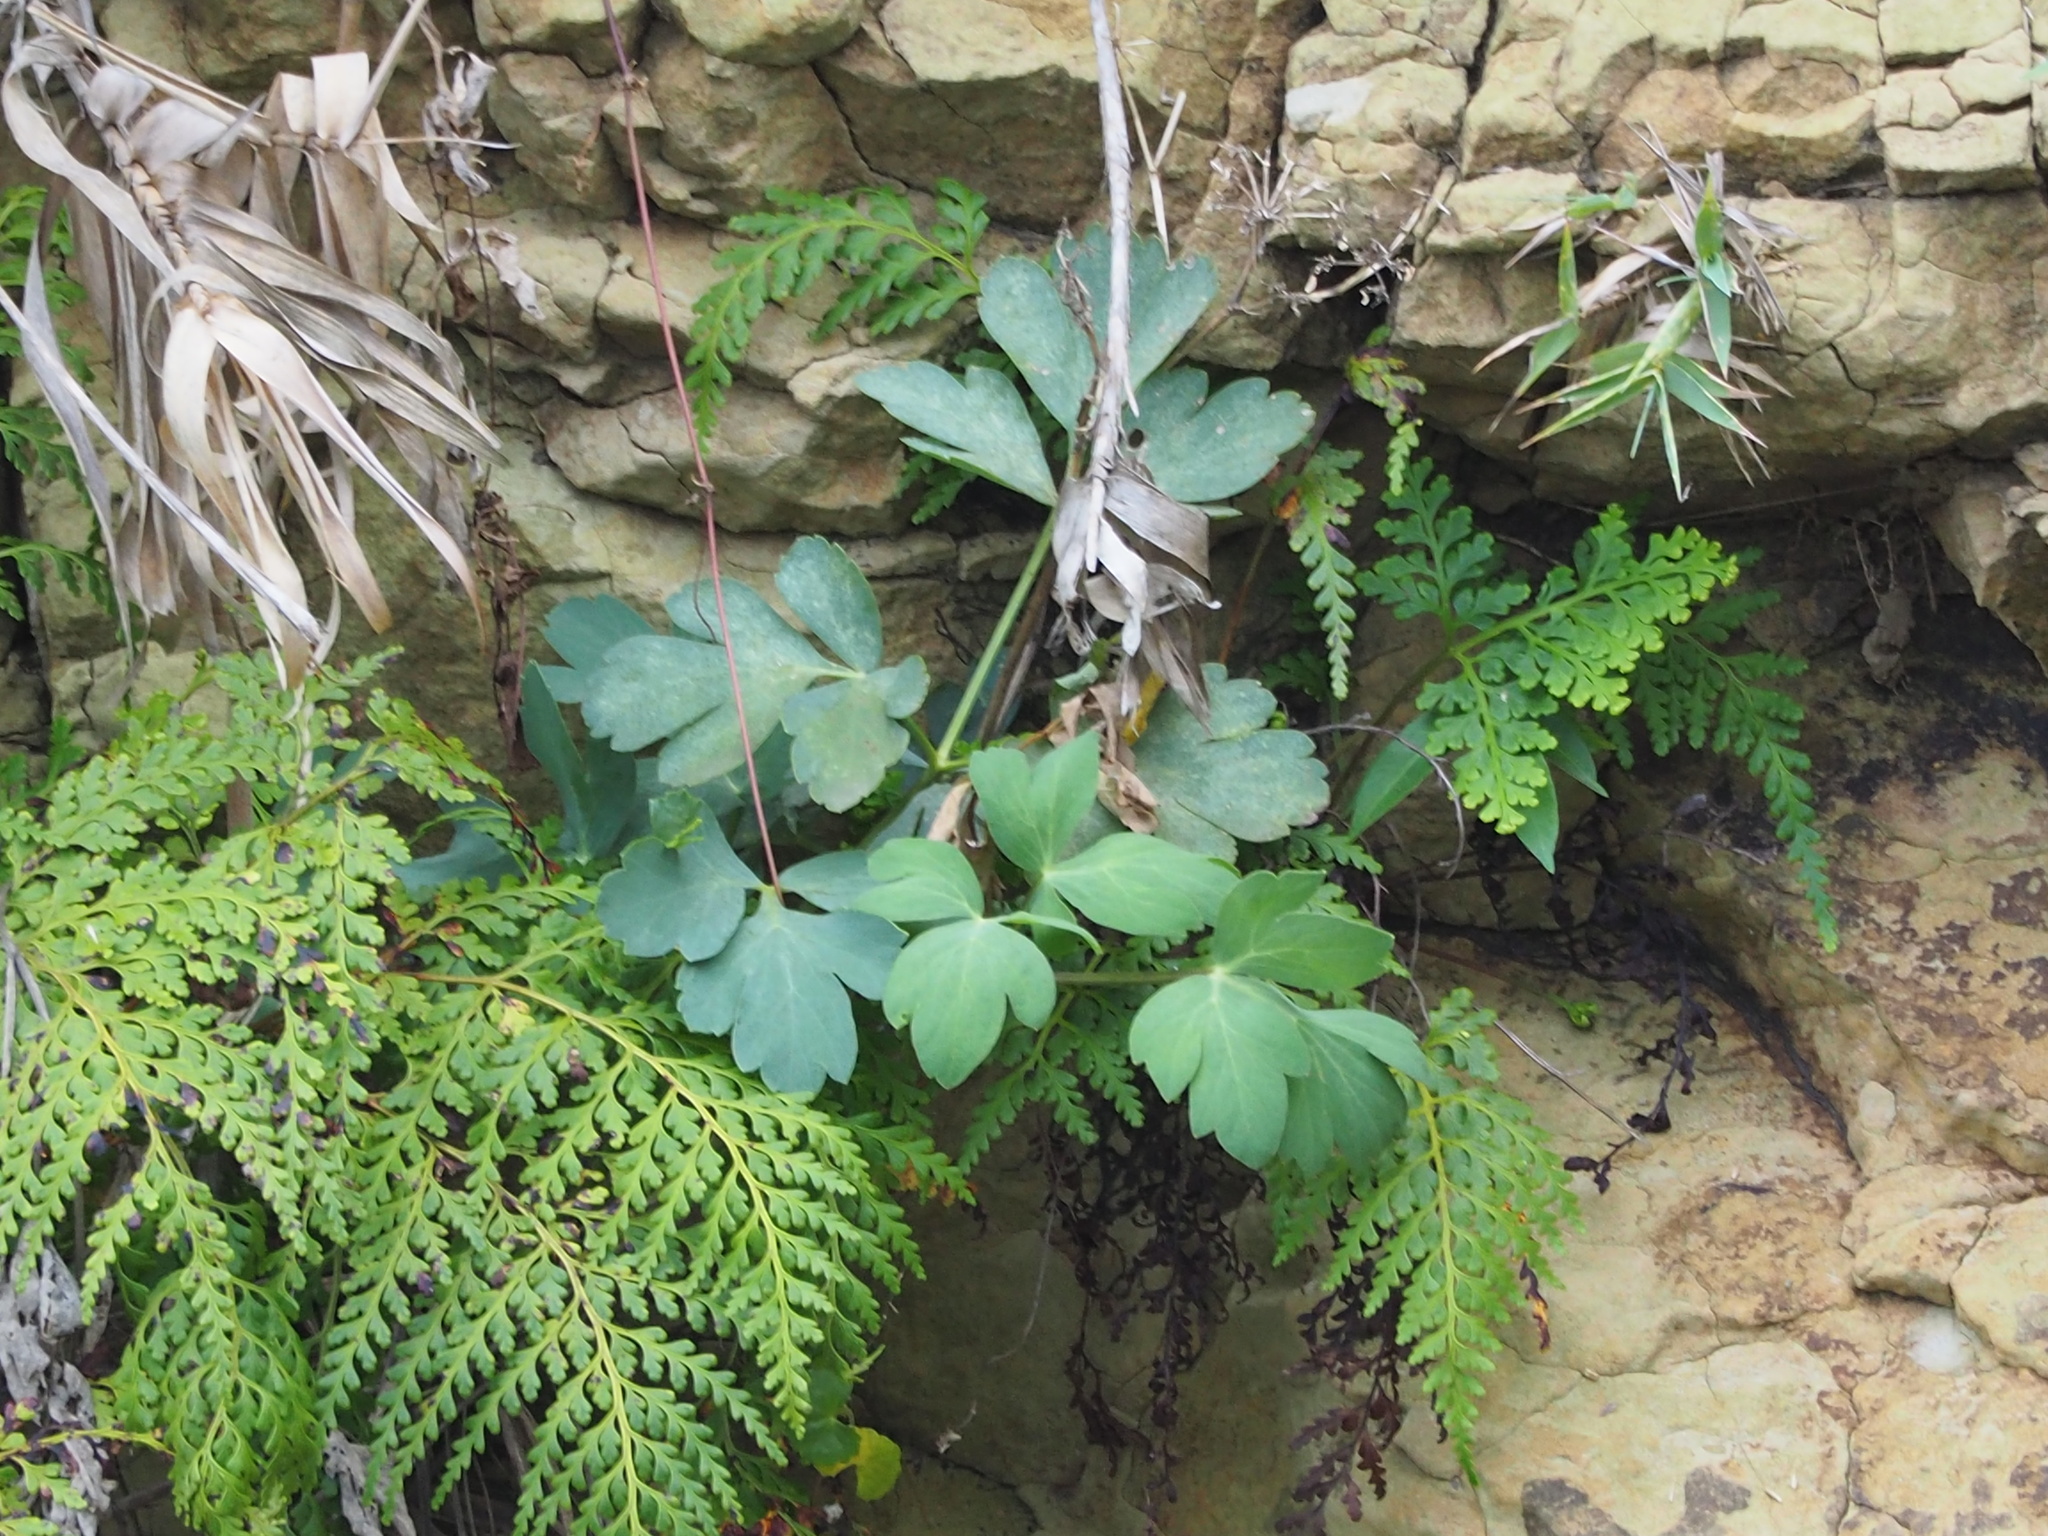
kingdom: Plantae
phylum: Tracheophyta
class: Magnoliopsida
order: Apiales
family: Apiaceae
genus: Peucedanum
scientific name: Peucedanum japonicum
